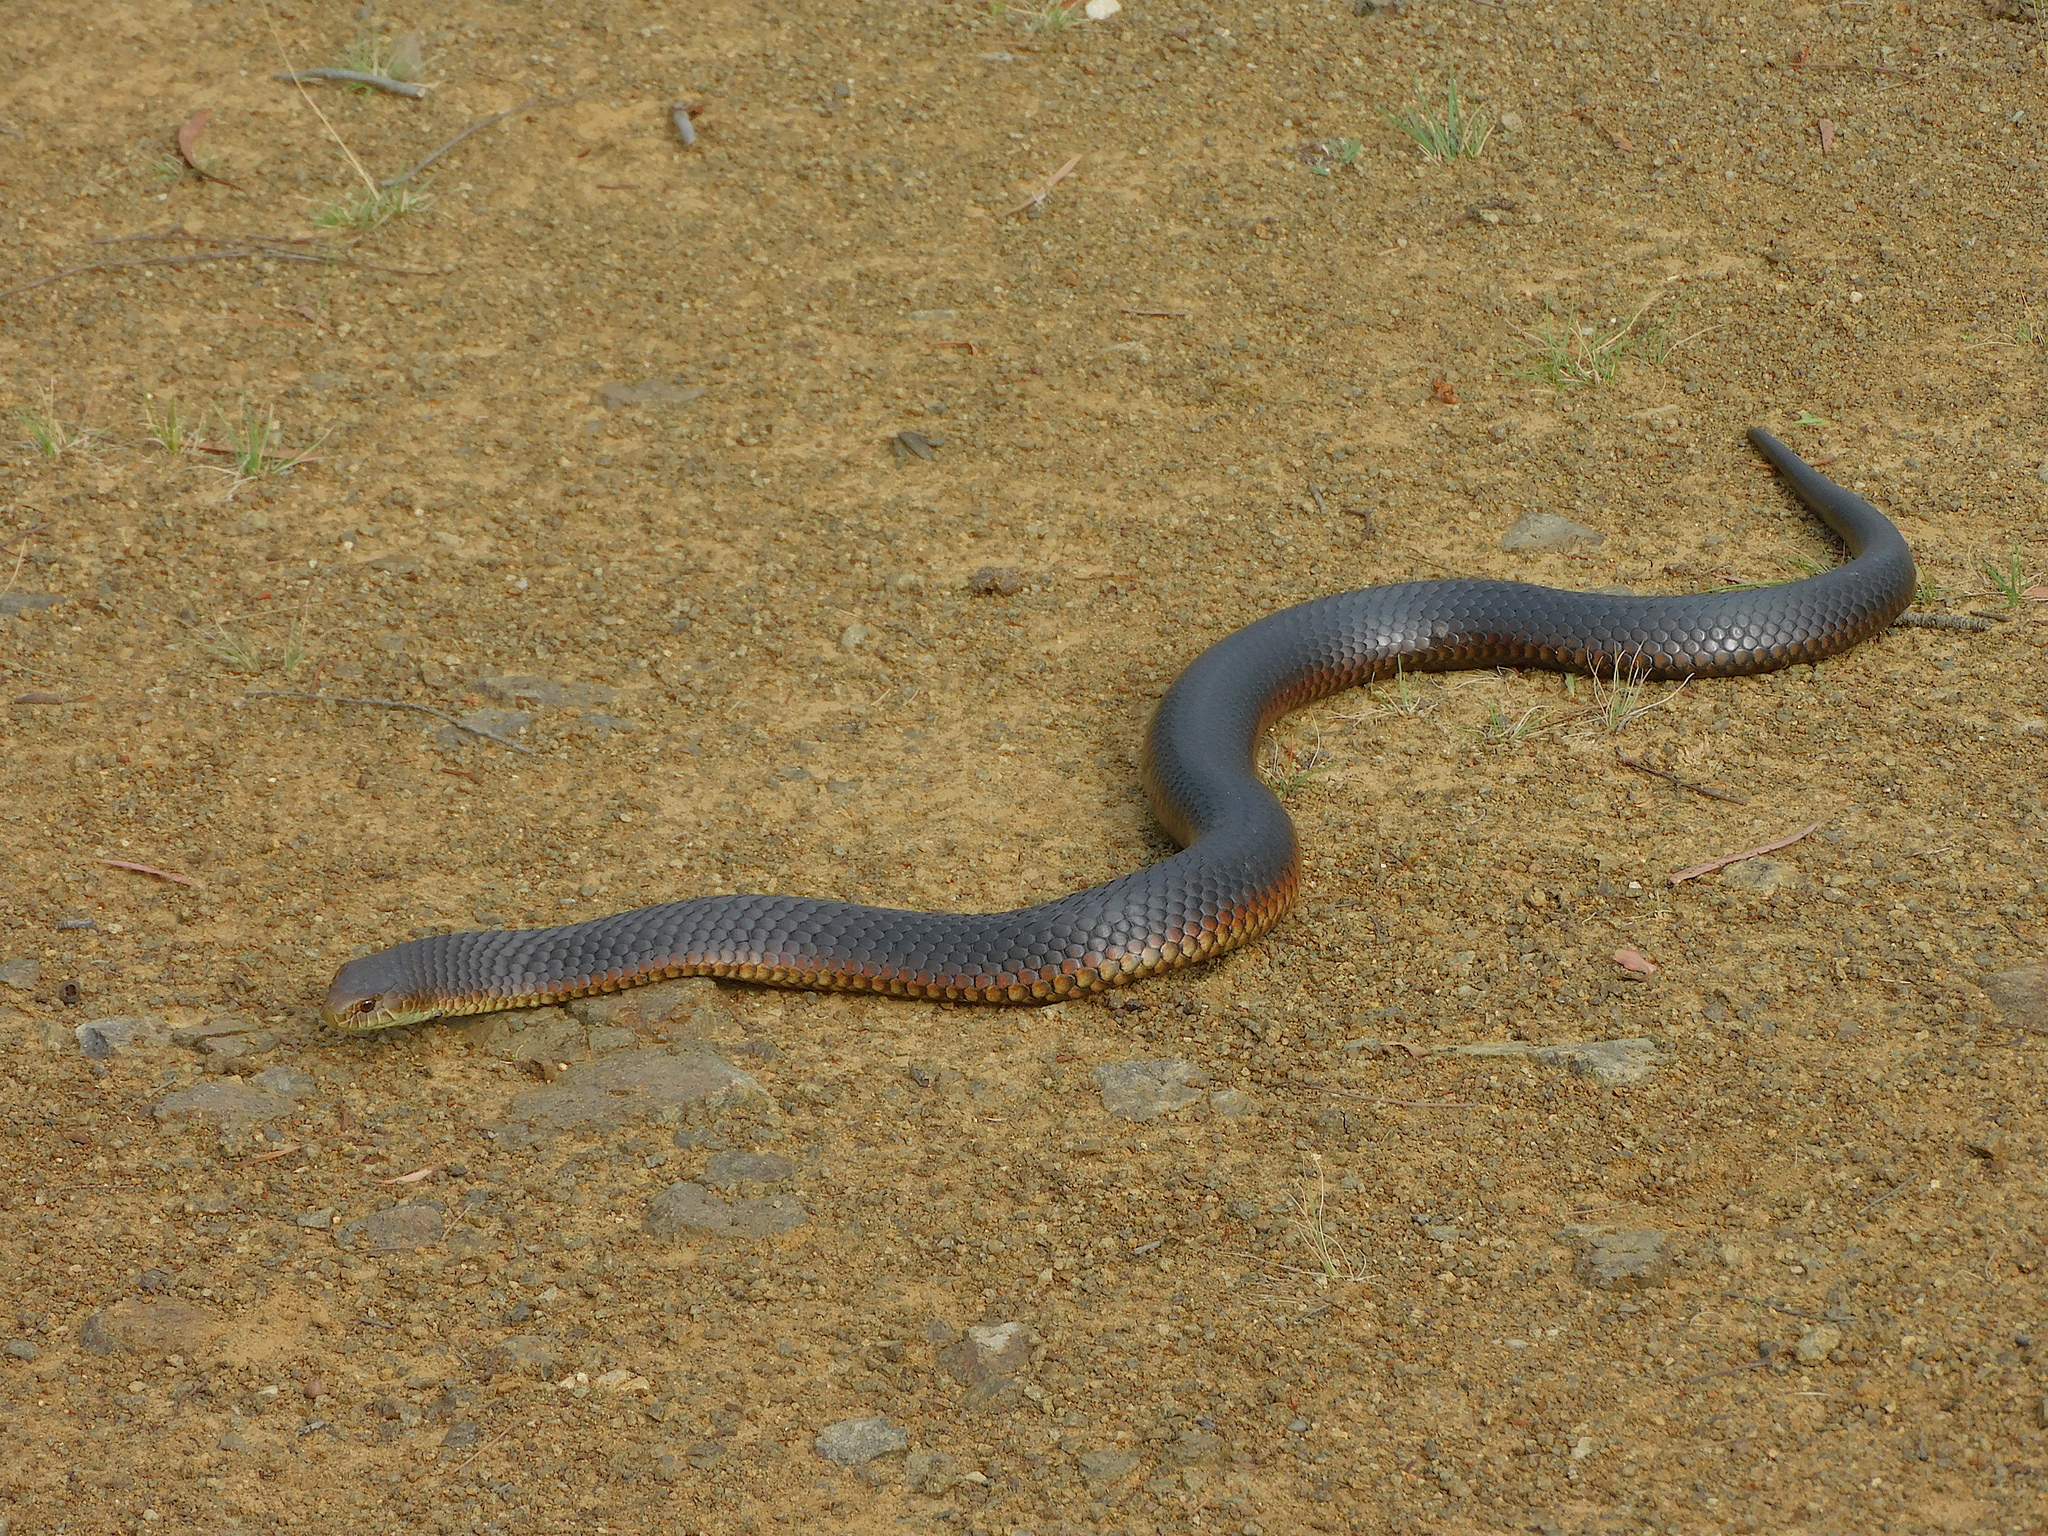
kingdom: Animalia
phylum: Chordata
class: Squamata
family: Elapidae
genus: Austrelaps
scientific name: Austrelaps superbus
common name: Copperhead snake
